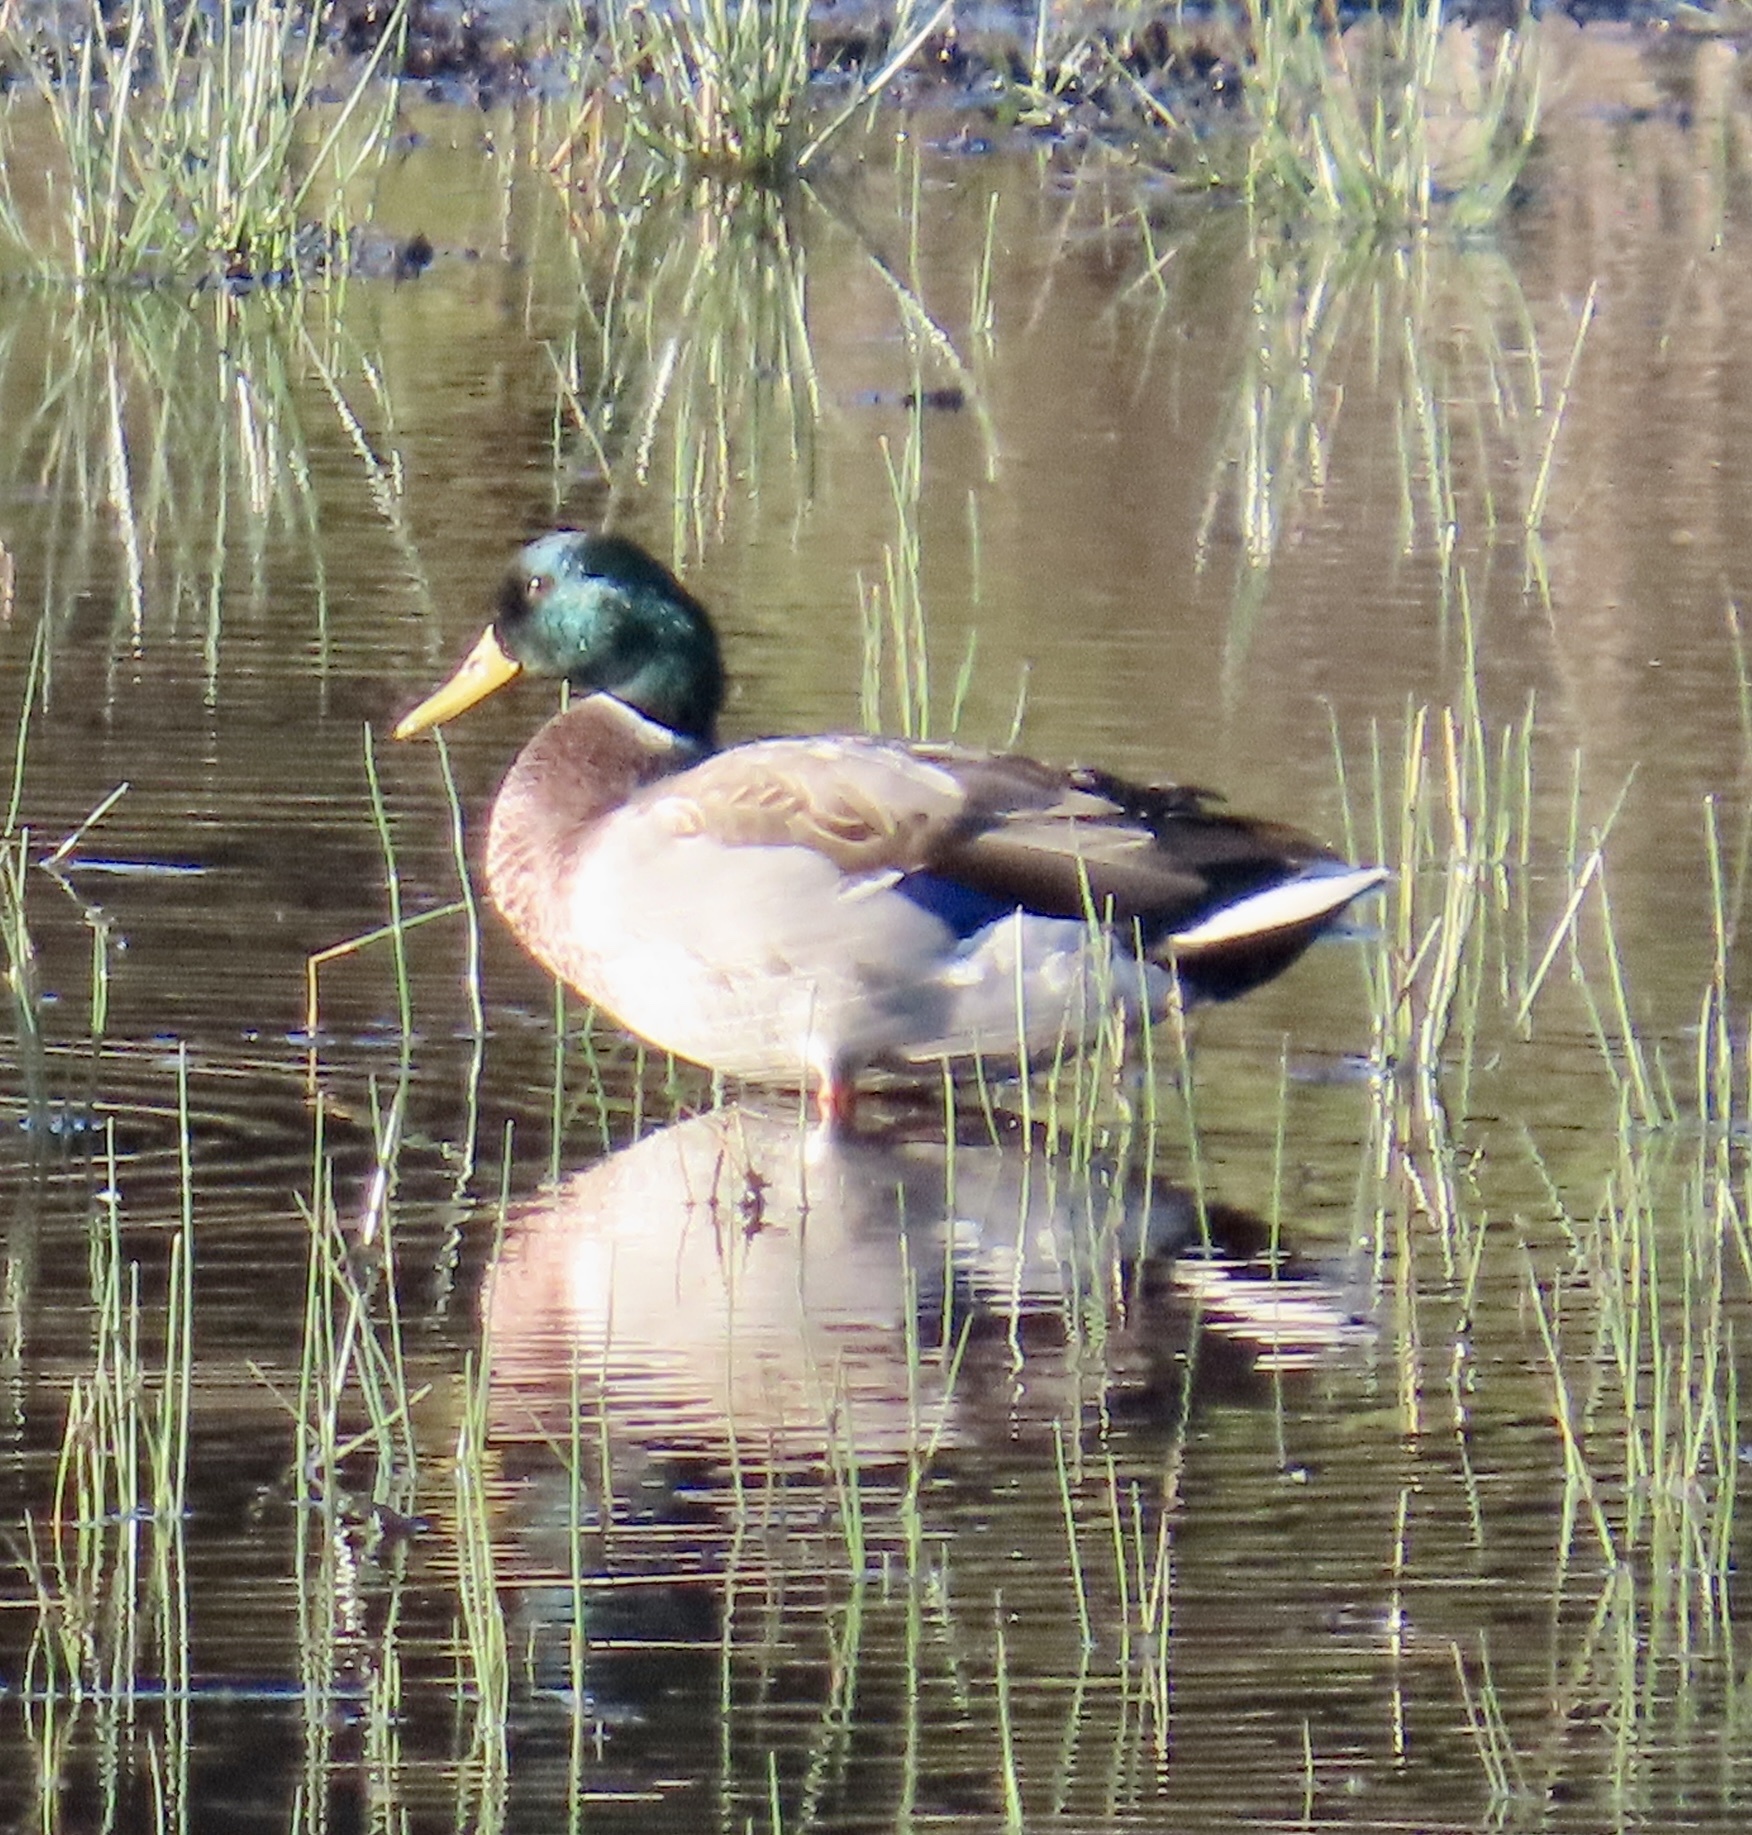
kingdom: Animalia
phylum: Chordata
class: Aves
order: Anseriformes
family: Anatidae
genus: Anas
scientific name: Anas platyrhynchos
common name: Mallard
